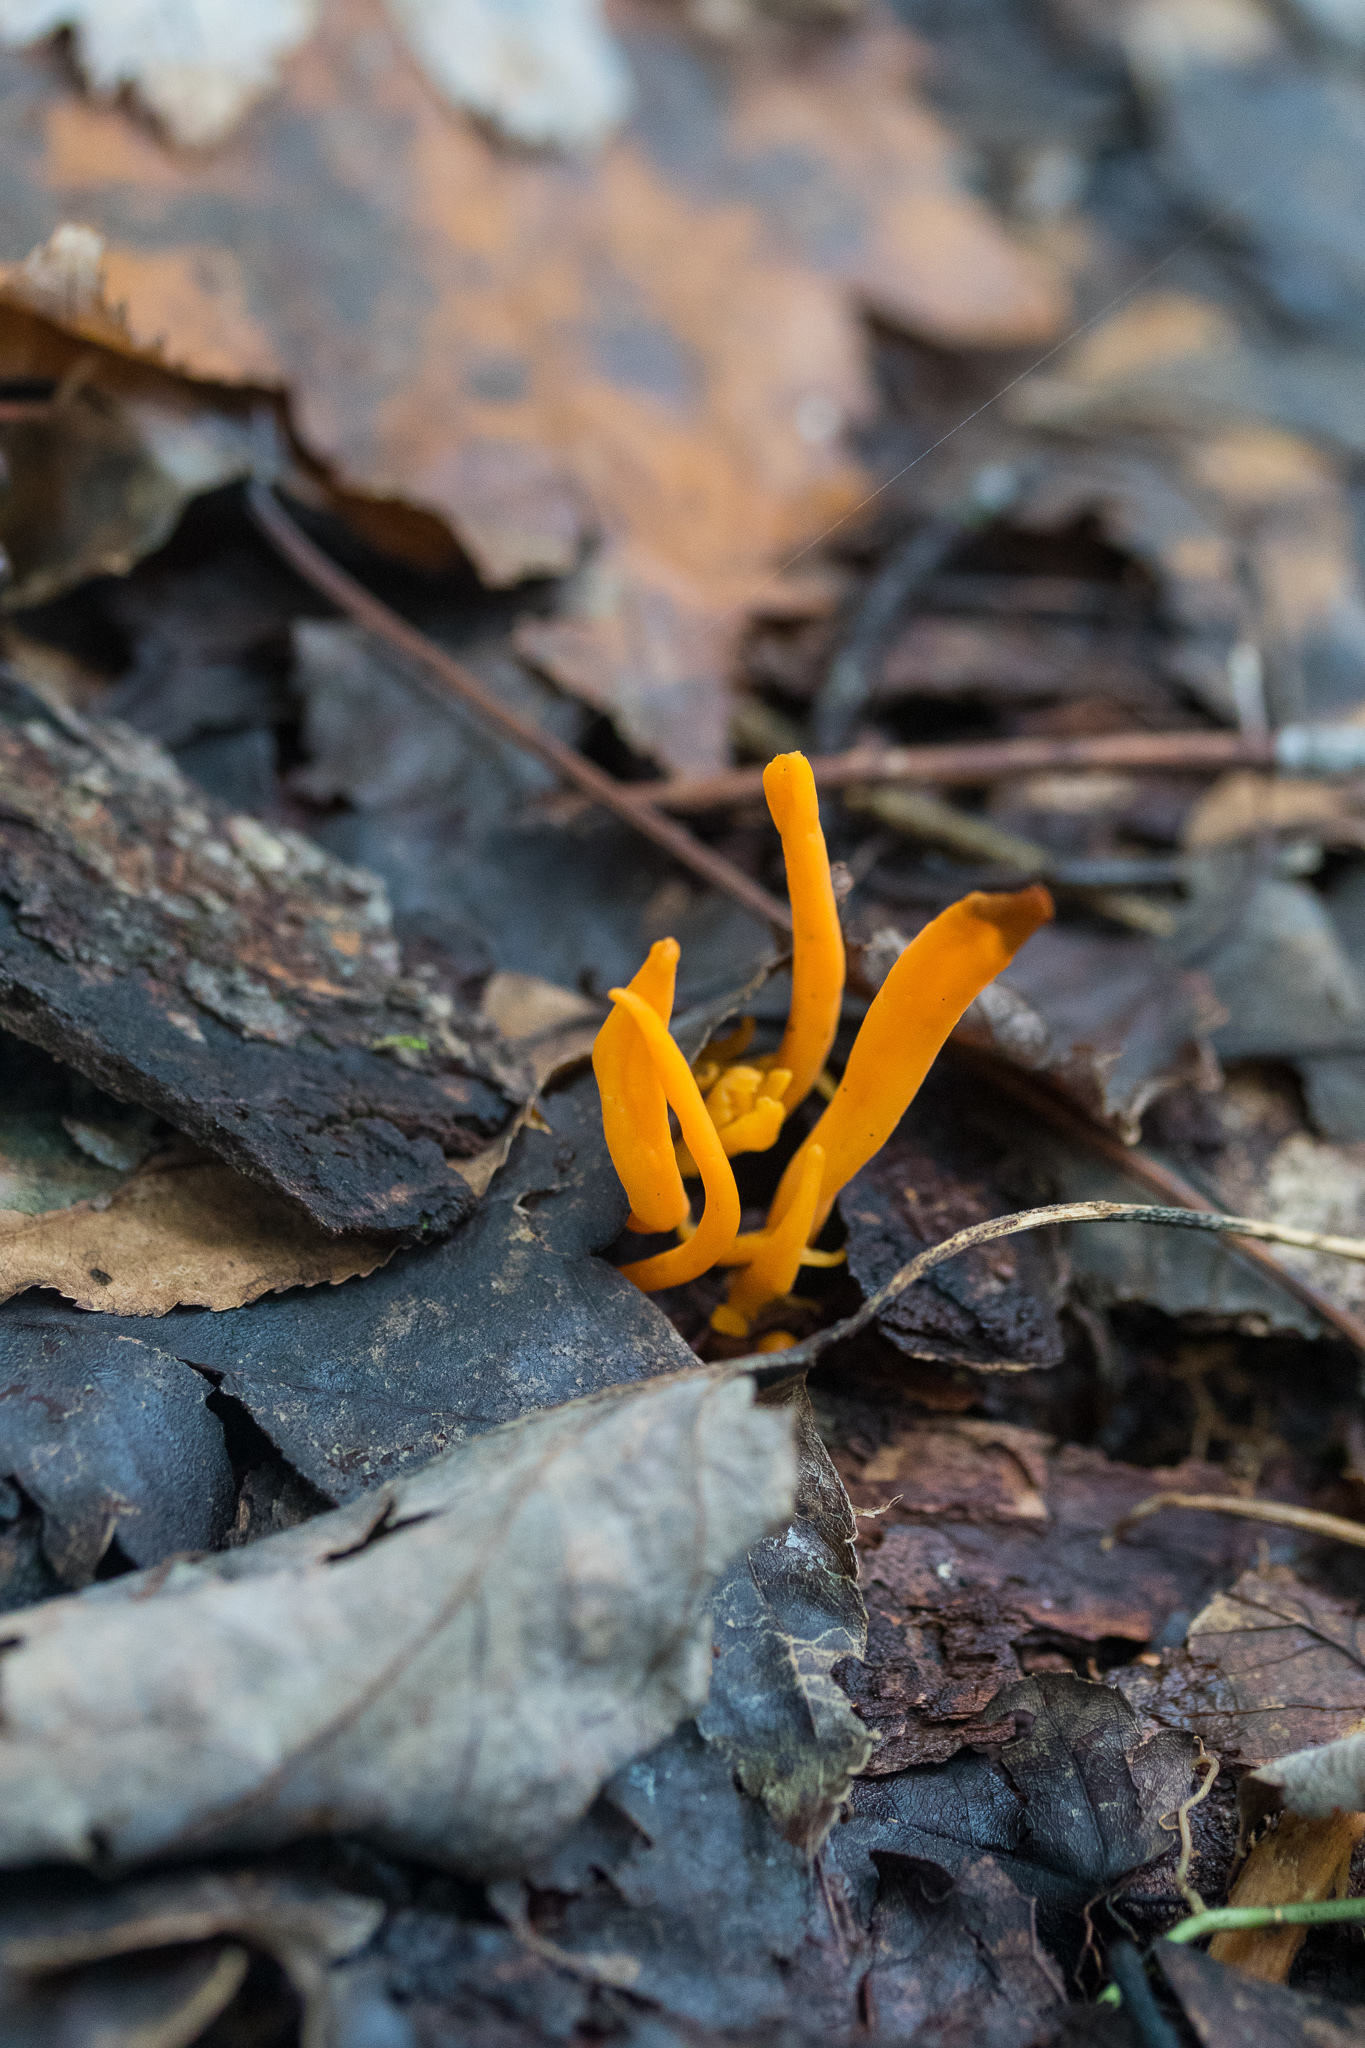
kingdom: Fungi
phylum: Basidiomycota
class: Agaricomycetes
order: Agaricales
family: Clavariaceae
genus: Clavulinopsis
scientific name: Clavulinopsis aurantiocinnabarina
